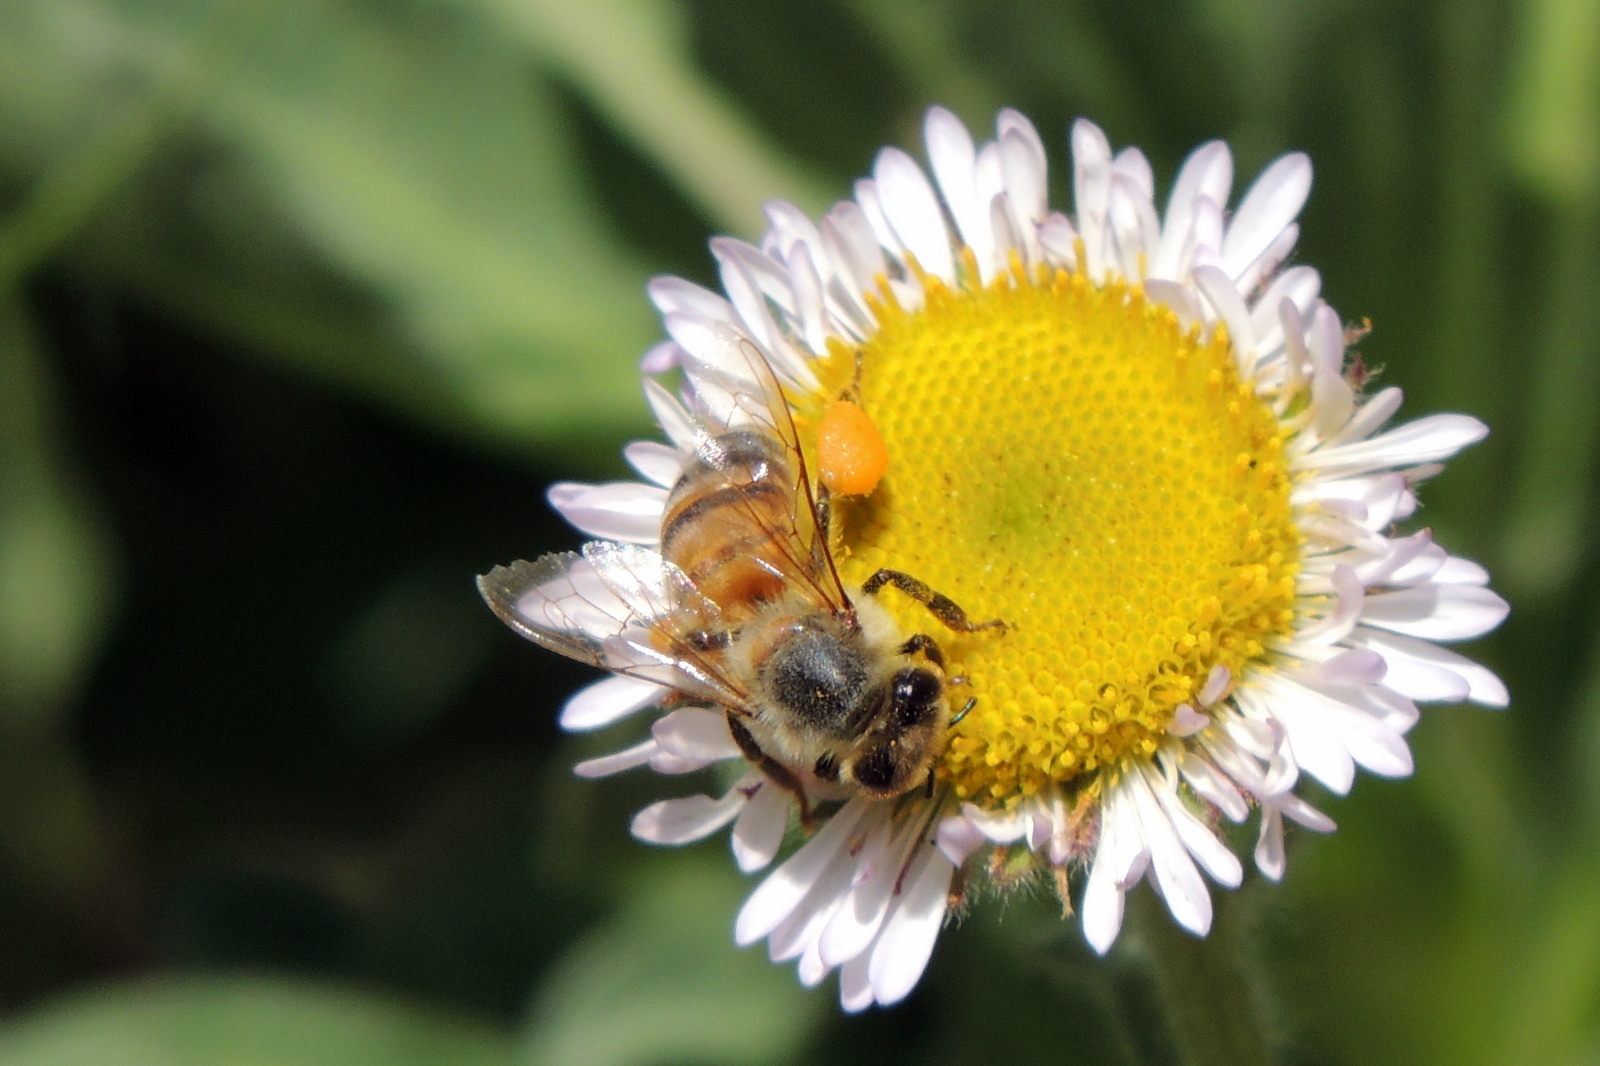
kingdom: Animalia
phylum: Arthropoda
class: Insecta
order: Hymenoptera
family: Apidae
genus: Apis
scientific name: Apis mellifera
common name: Honey bee
